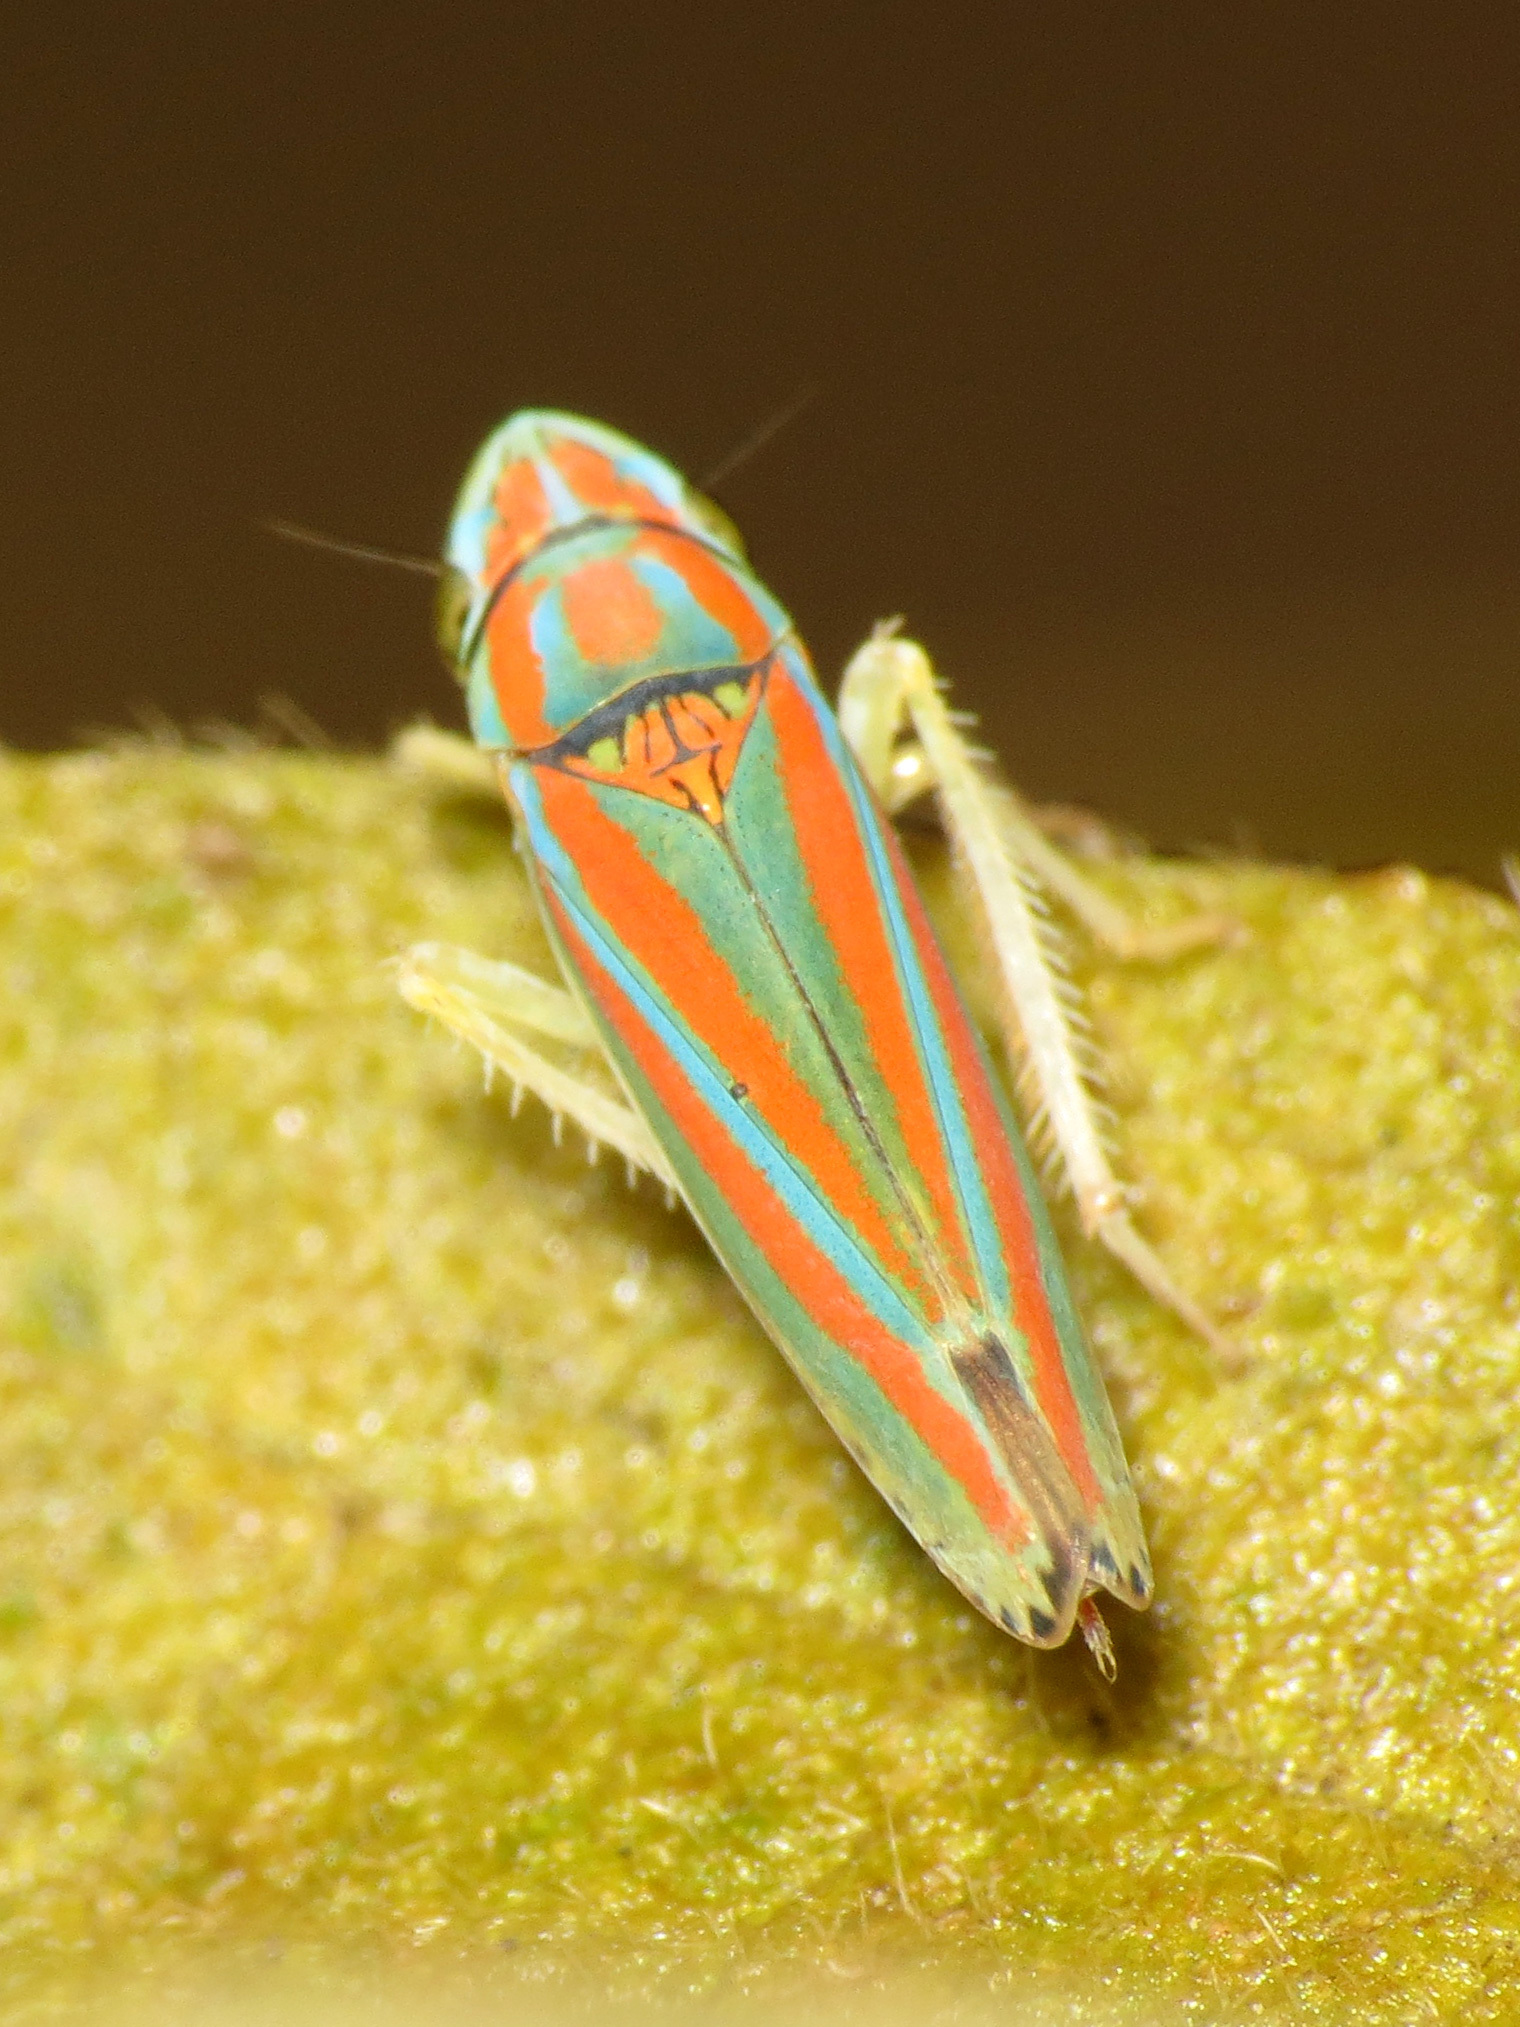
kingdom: Animalia
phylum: Arthropoda
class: Insecta
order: Hemiptera
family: Cicadellidae
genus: Graphocephala
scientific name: Graphocephala versuta
